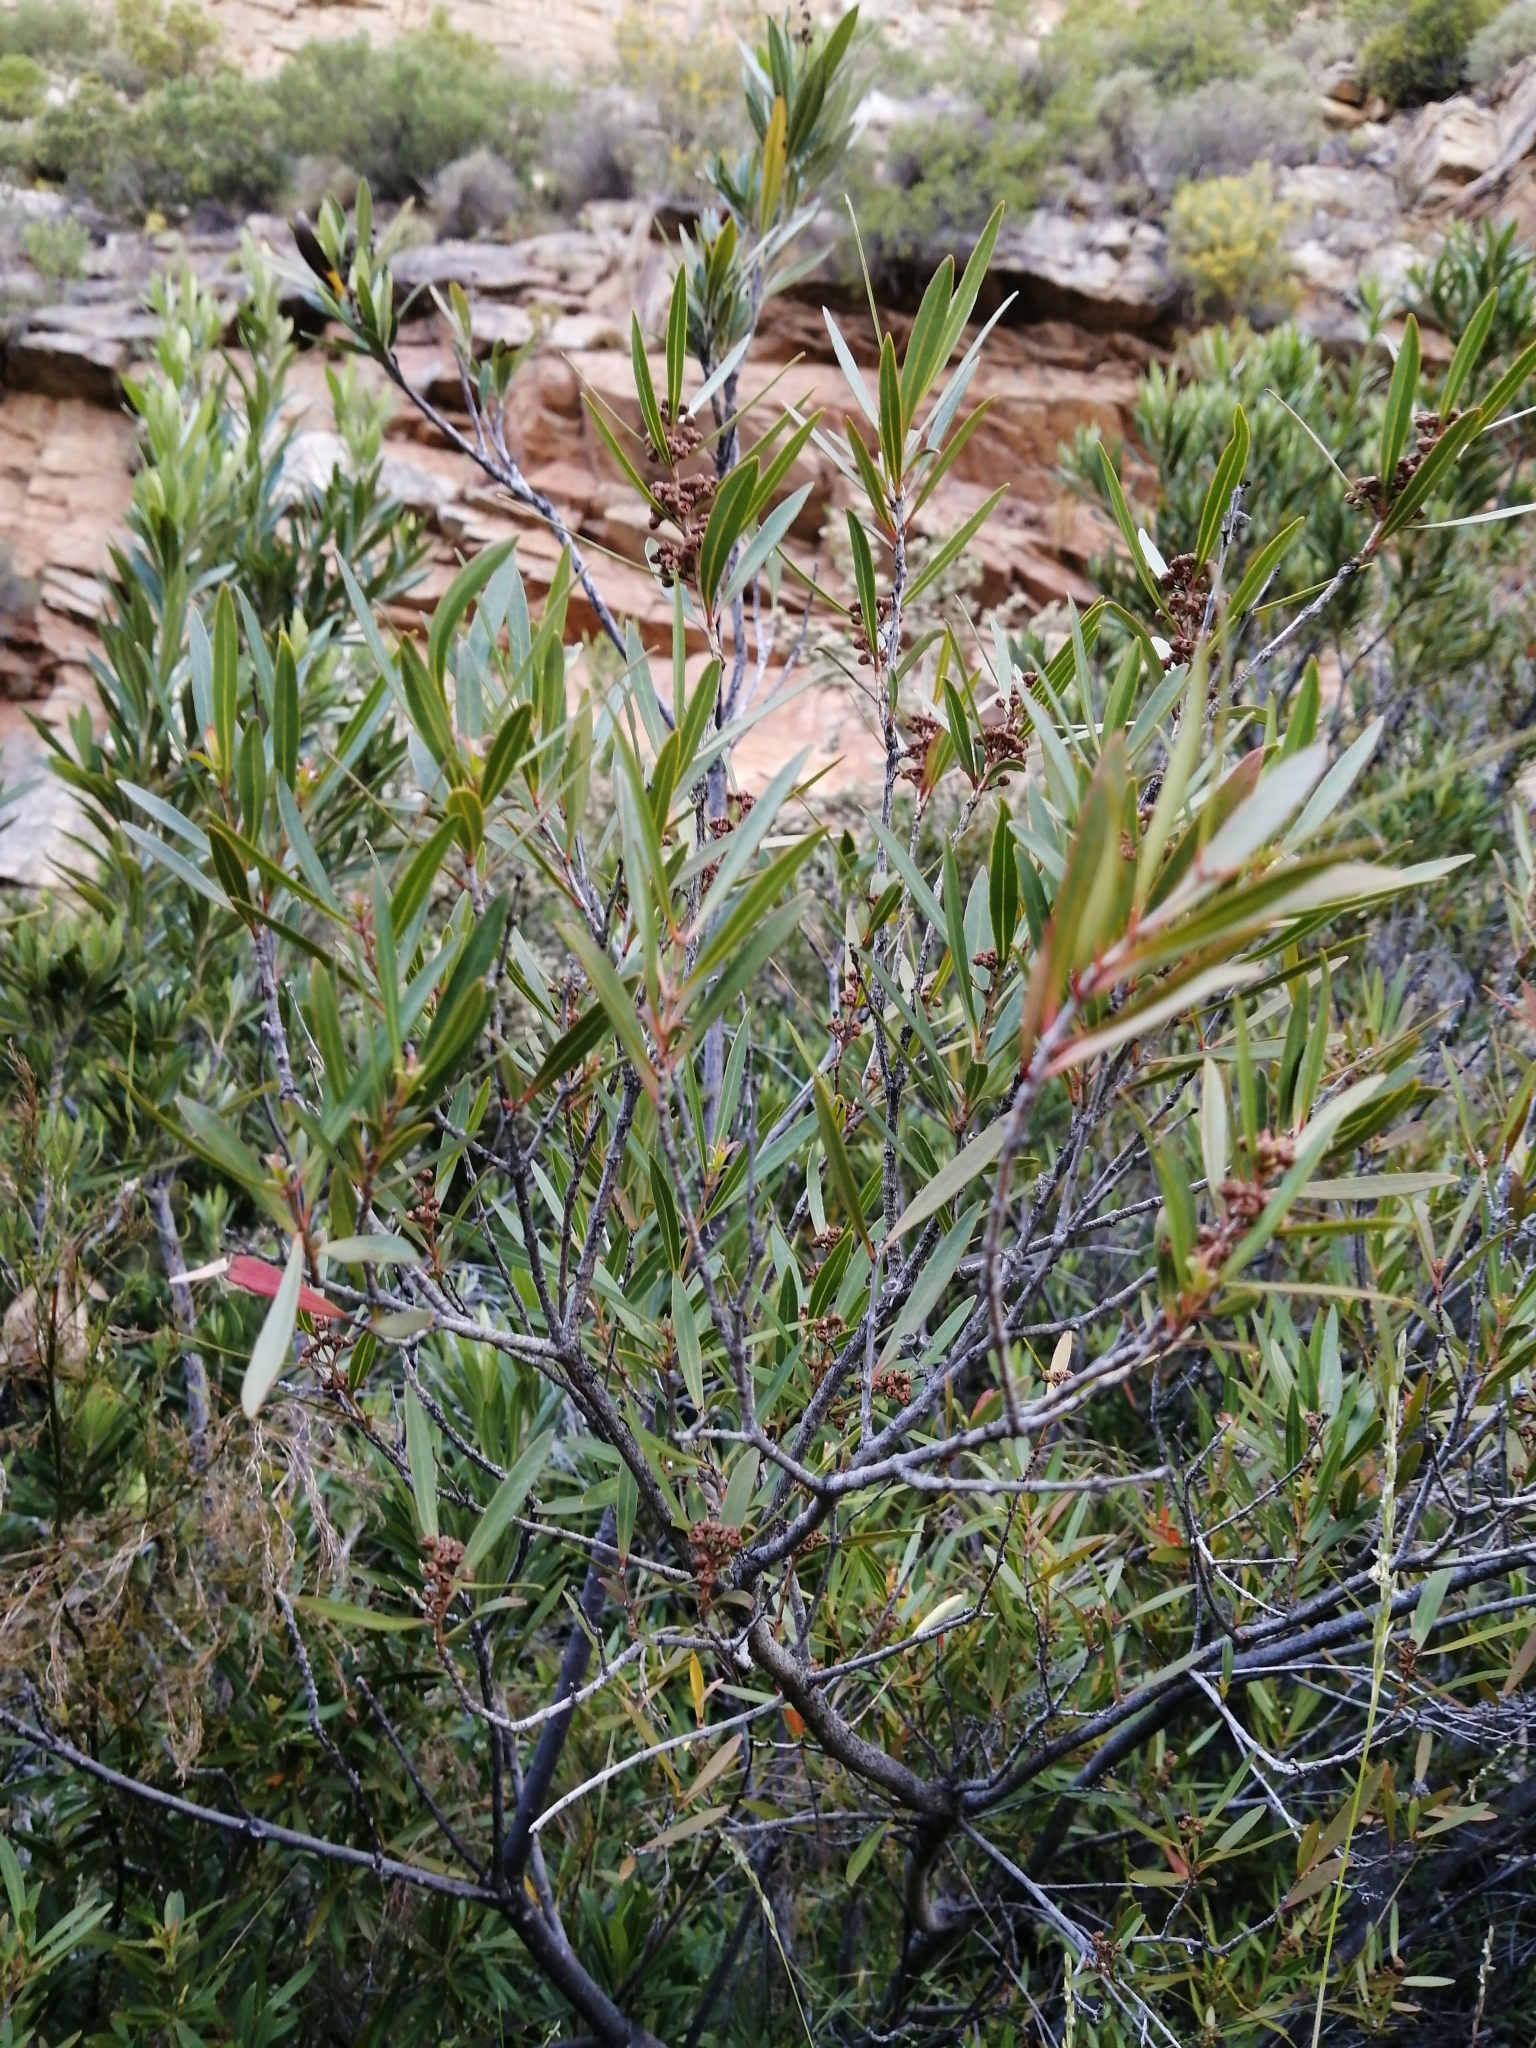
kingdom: Plantae
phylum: Tracheophyta
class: Magnoliopsida
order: Myrtales
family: Myrtaceae
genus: Callistemon
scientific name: Callistemon lanceolatus
